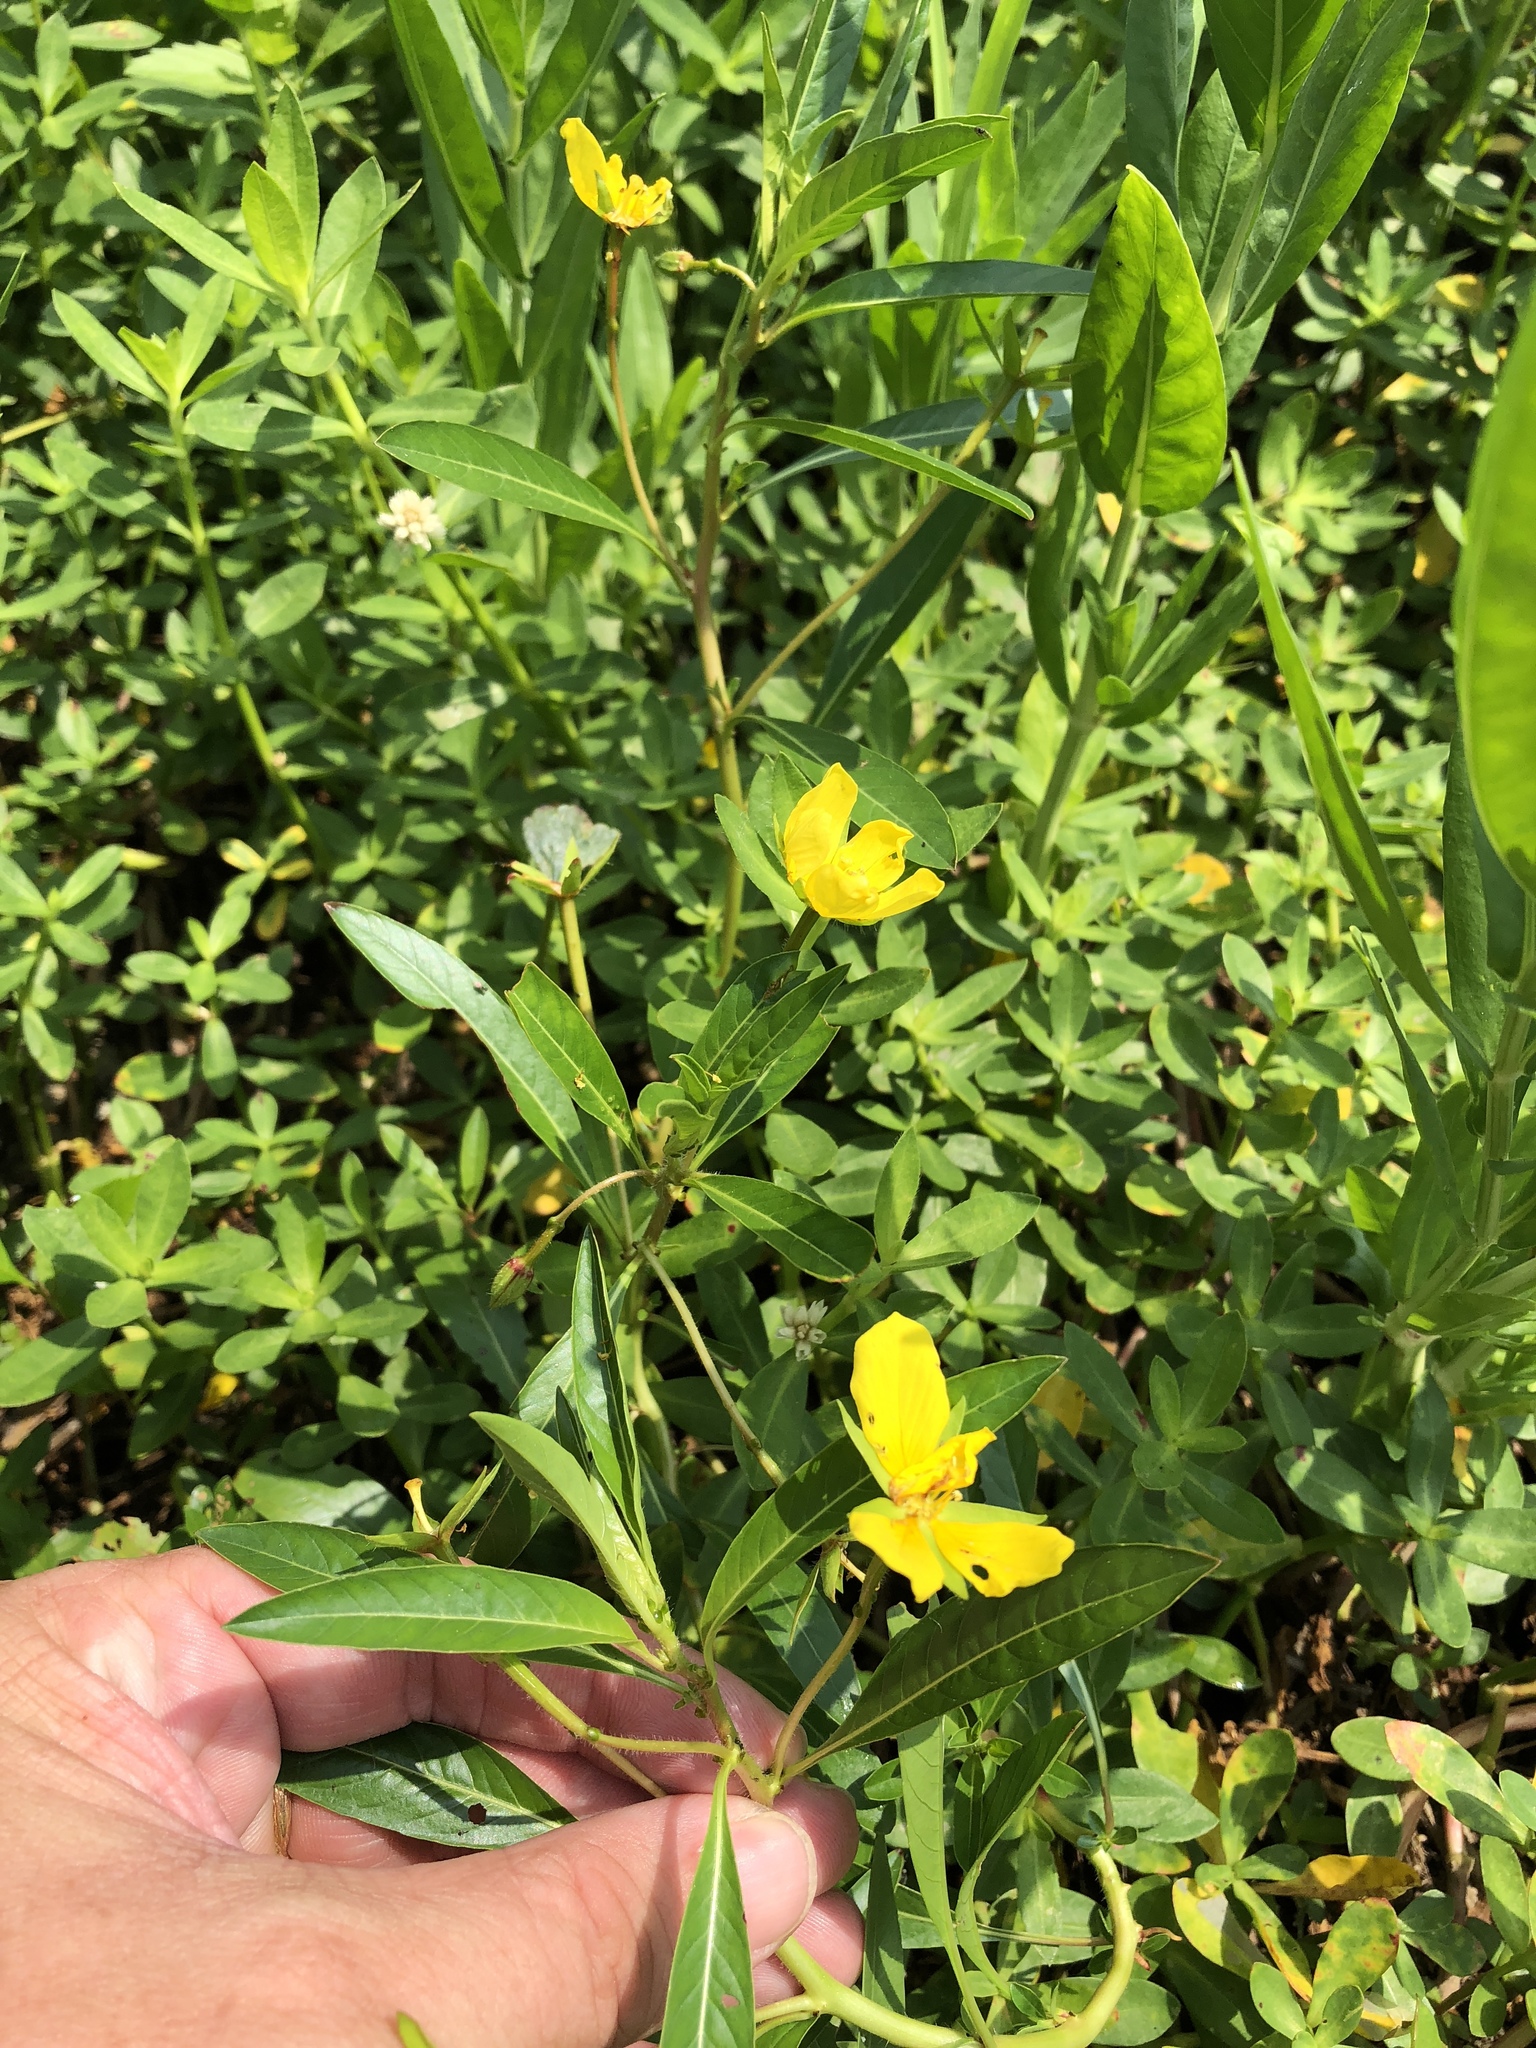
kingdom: Plantae
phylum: Tracheophyta
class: Magnoliopsida
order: Myrtales
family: Onagraceae
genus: Ludwigia
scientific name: Ludwigia peploides
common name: Floating primrose-willow
